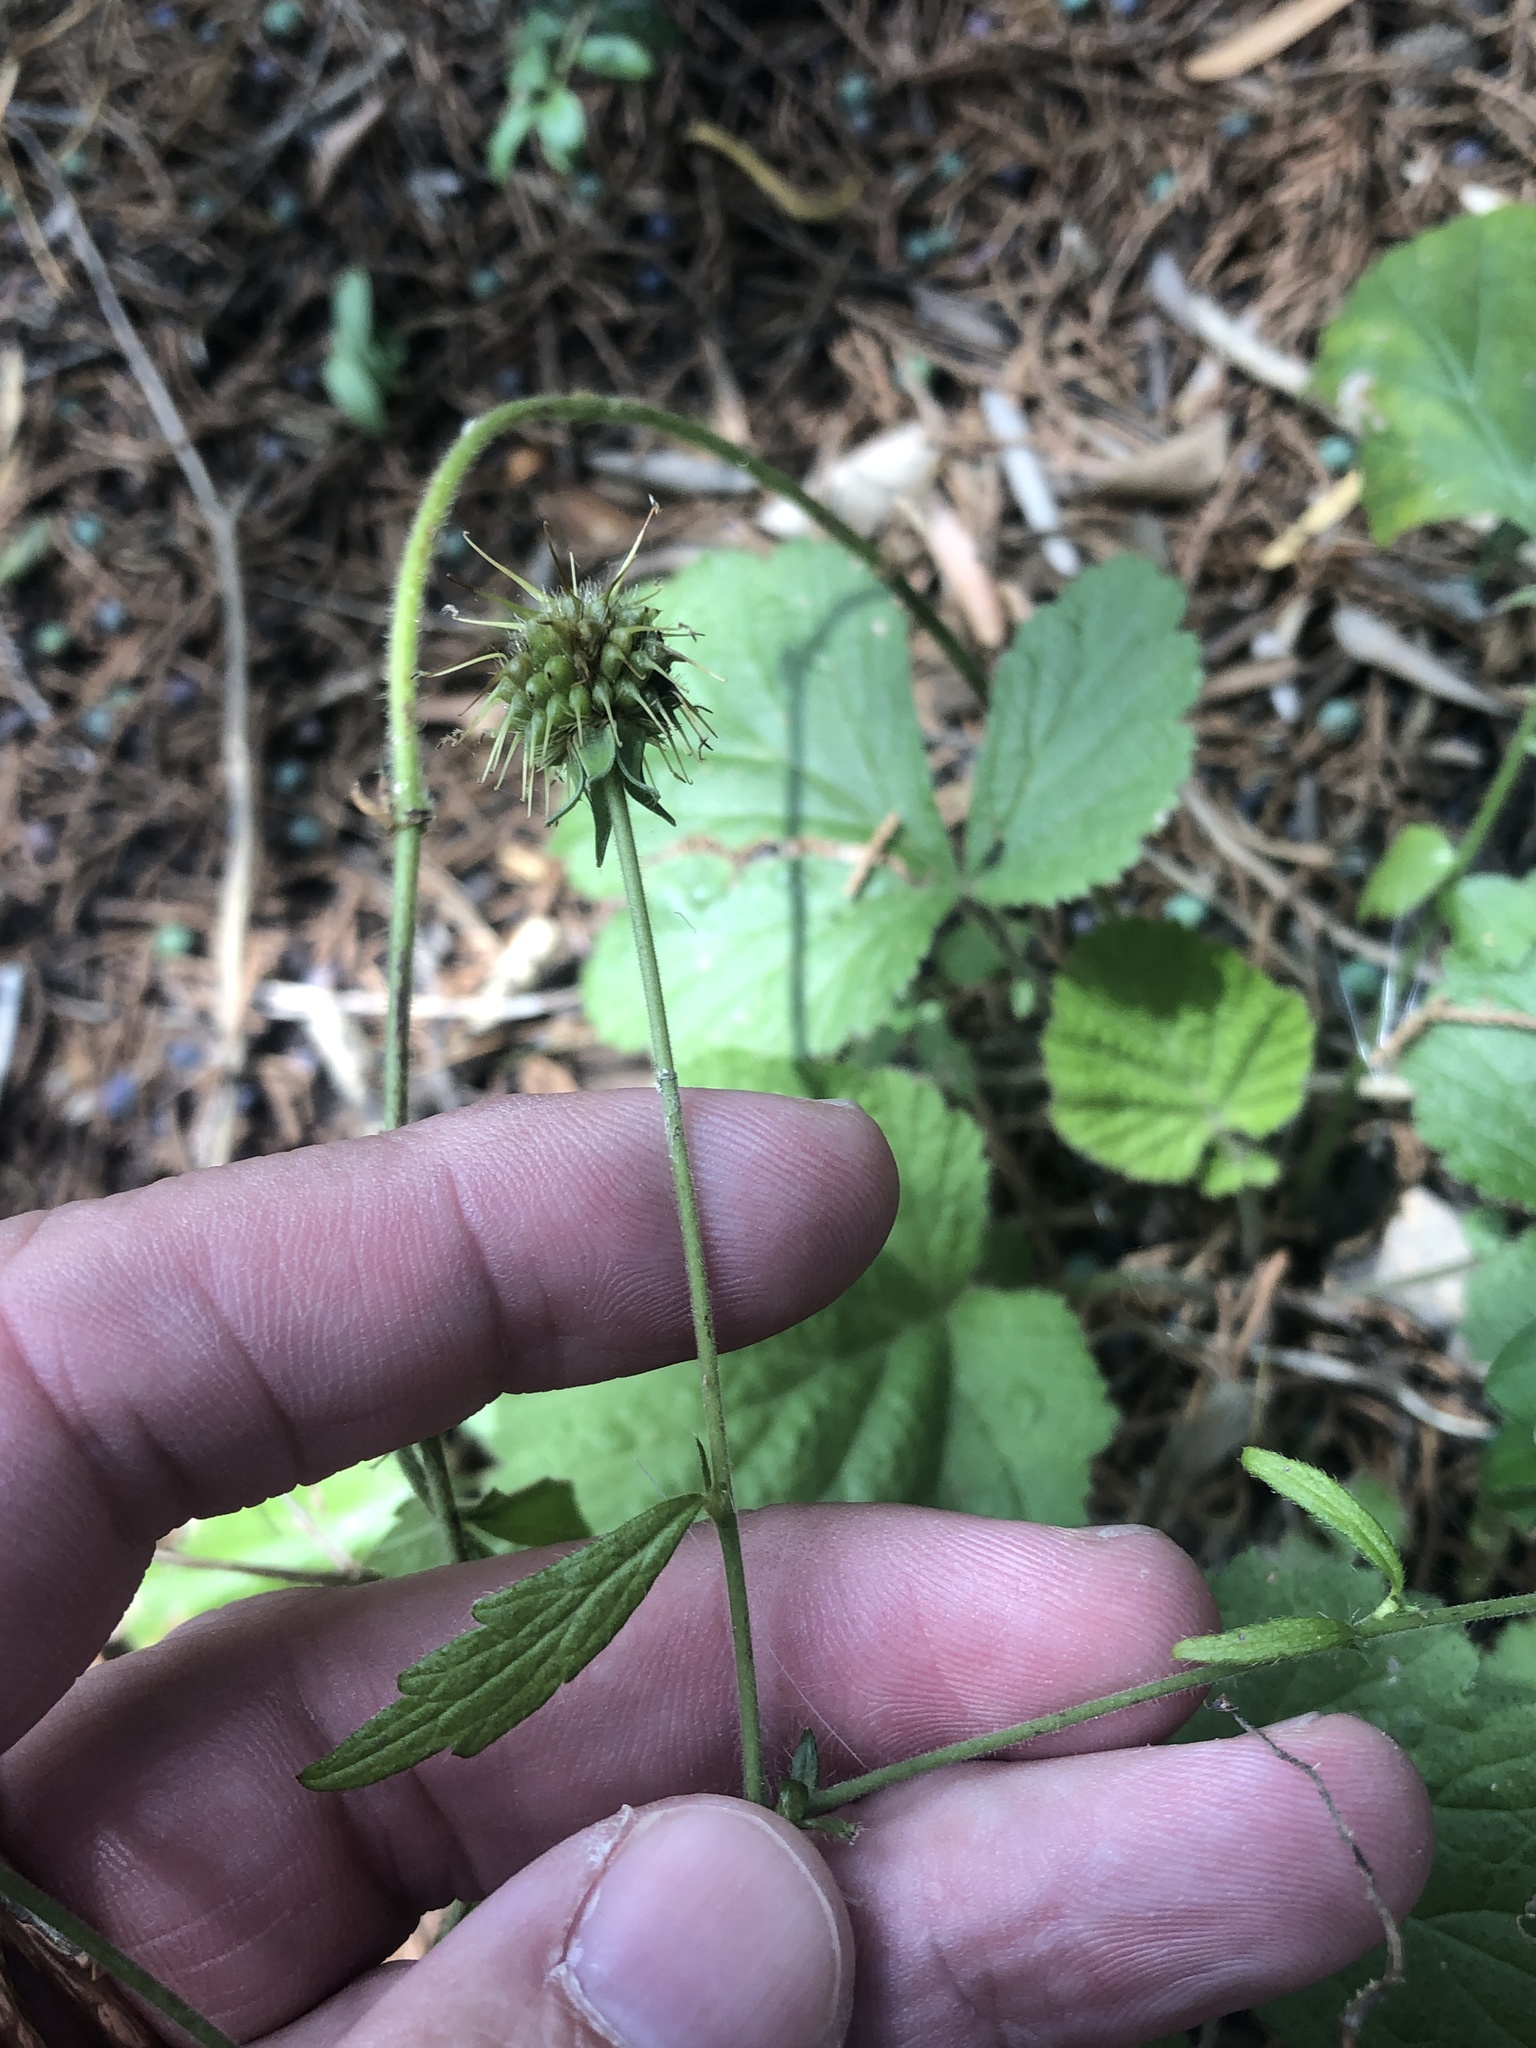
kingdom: Plantae
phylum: Tracheophyta
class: Magnoliopsida
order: Rosales
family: Rosaceae
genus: Geum
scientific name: Geum canadense
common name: White avens
